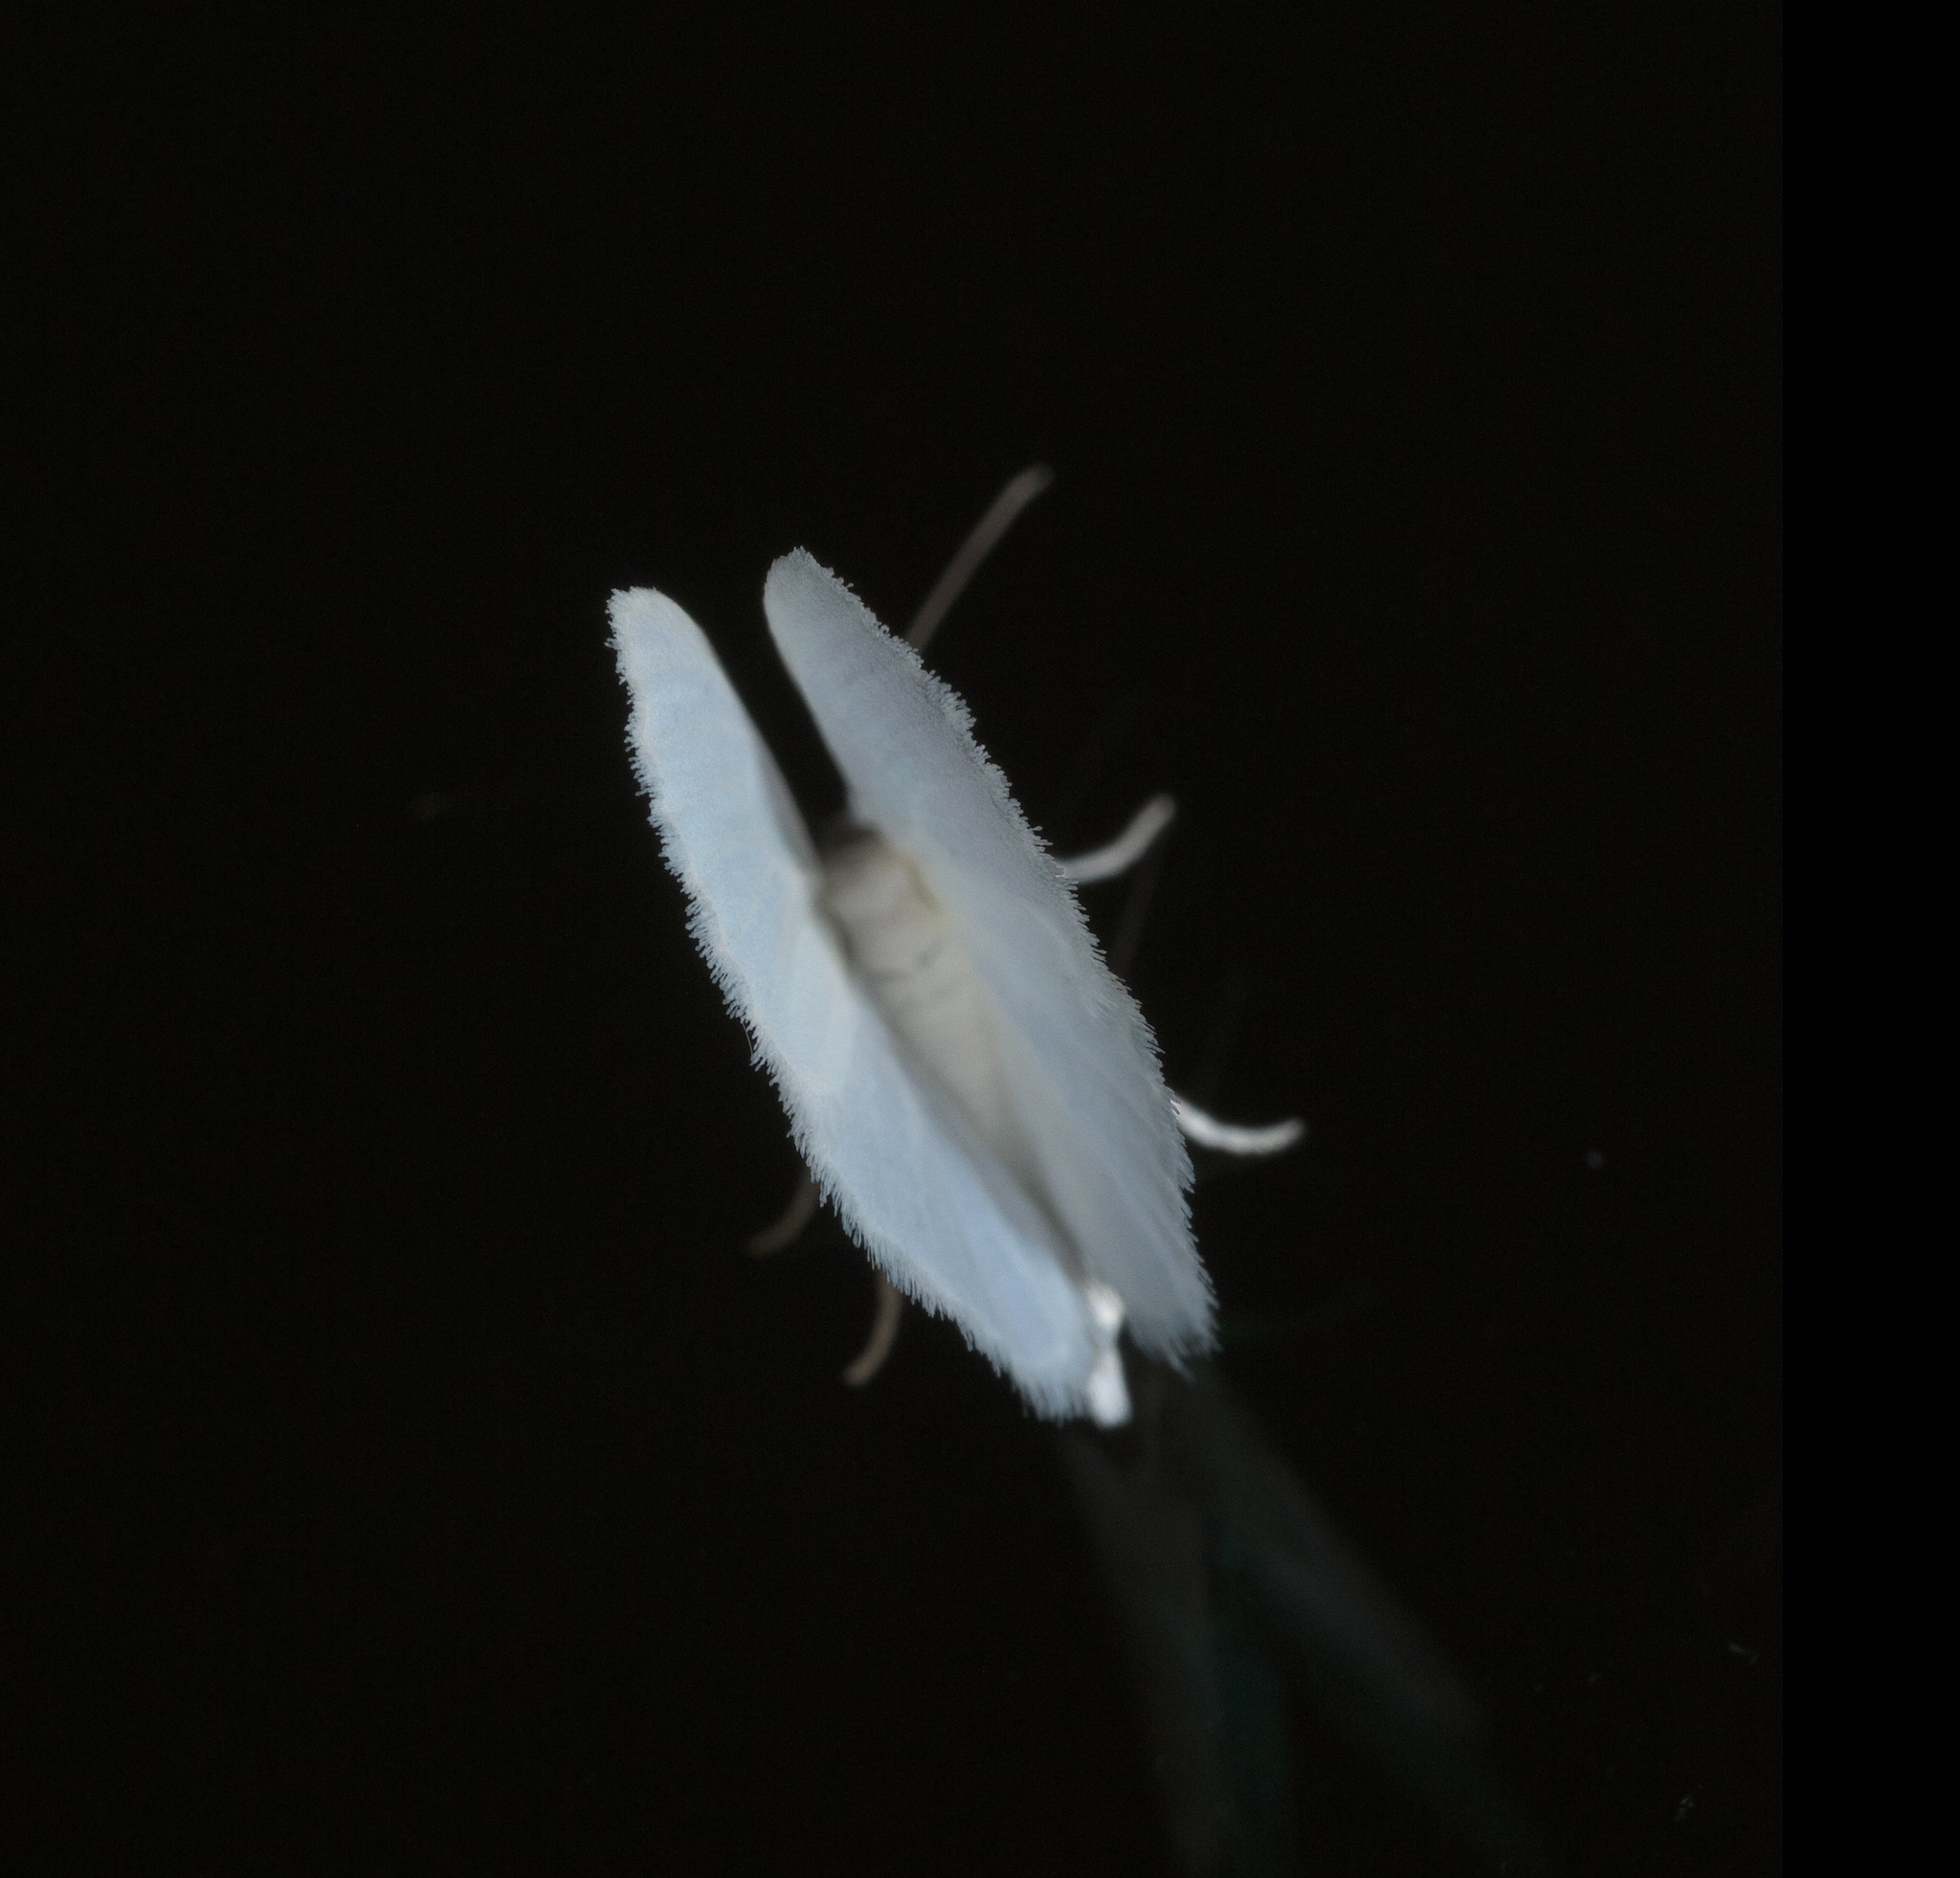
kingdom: Animalia
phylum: Arthropoda
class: Insecta
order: Lepidoptera
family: Geometridae
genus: Lomographa
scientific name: Lomographa vestaliata
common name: White spring moth
